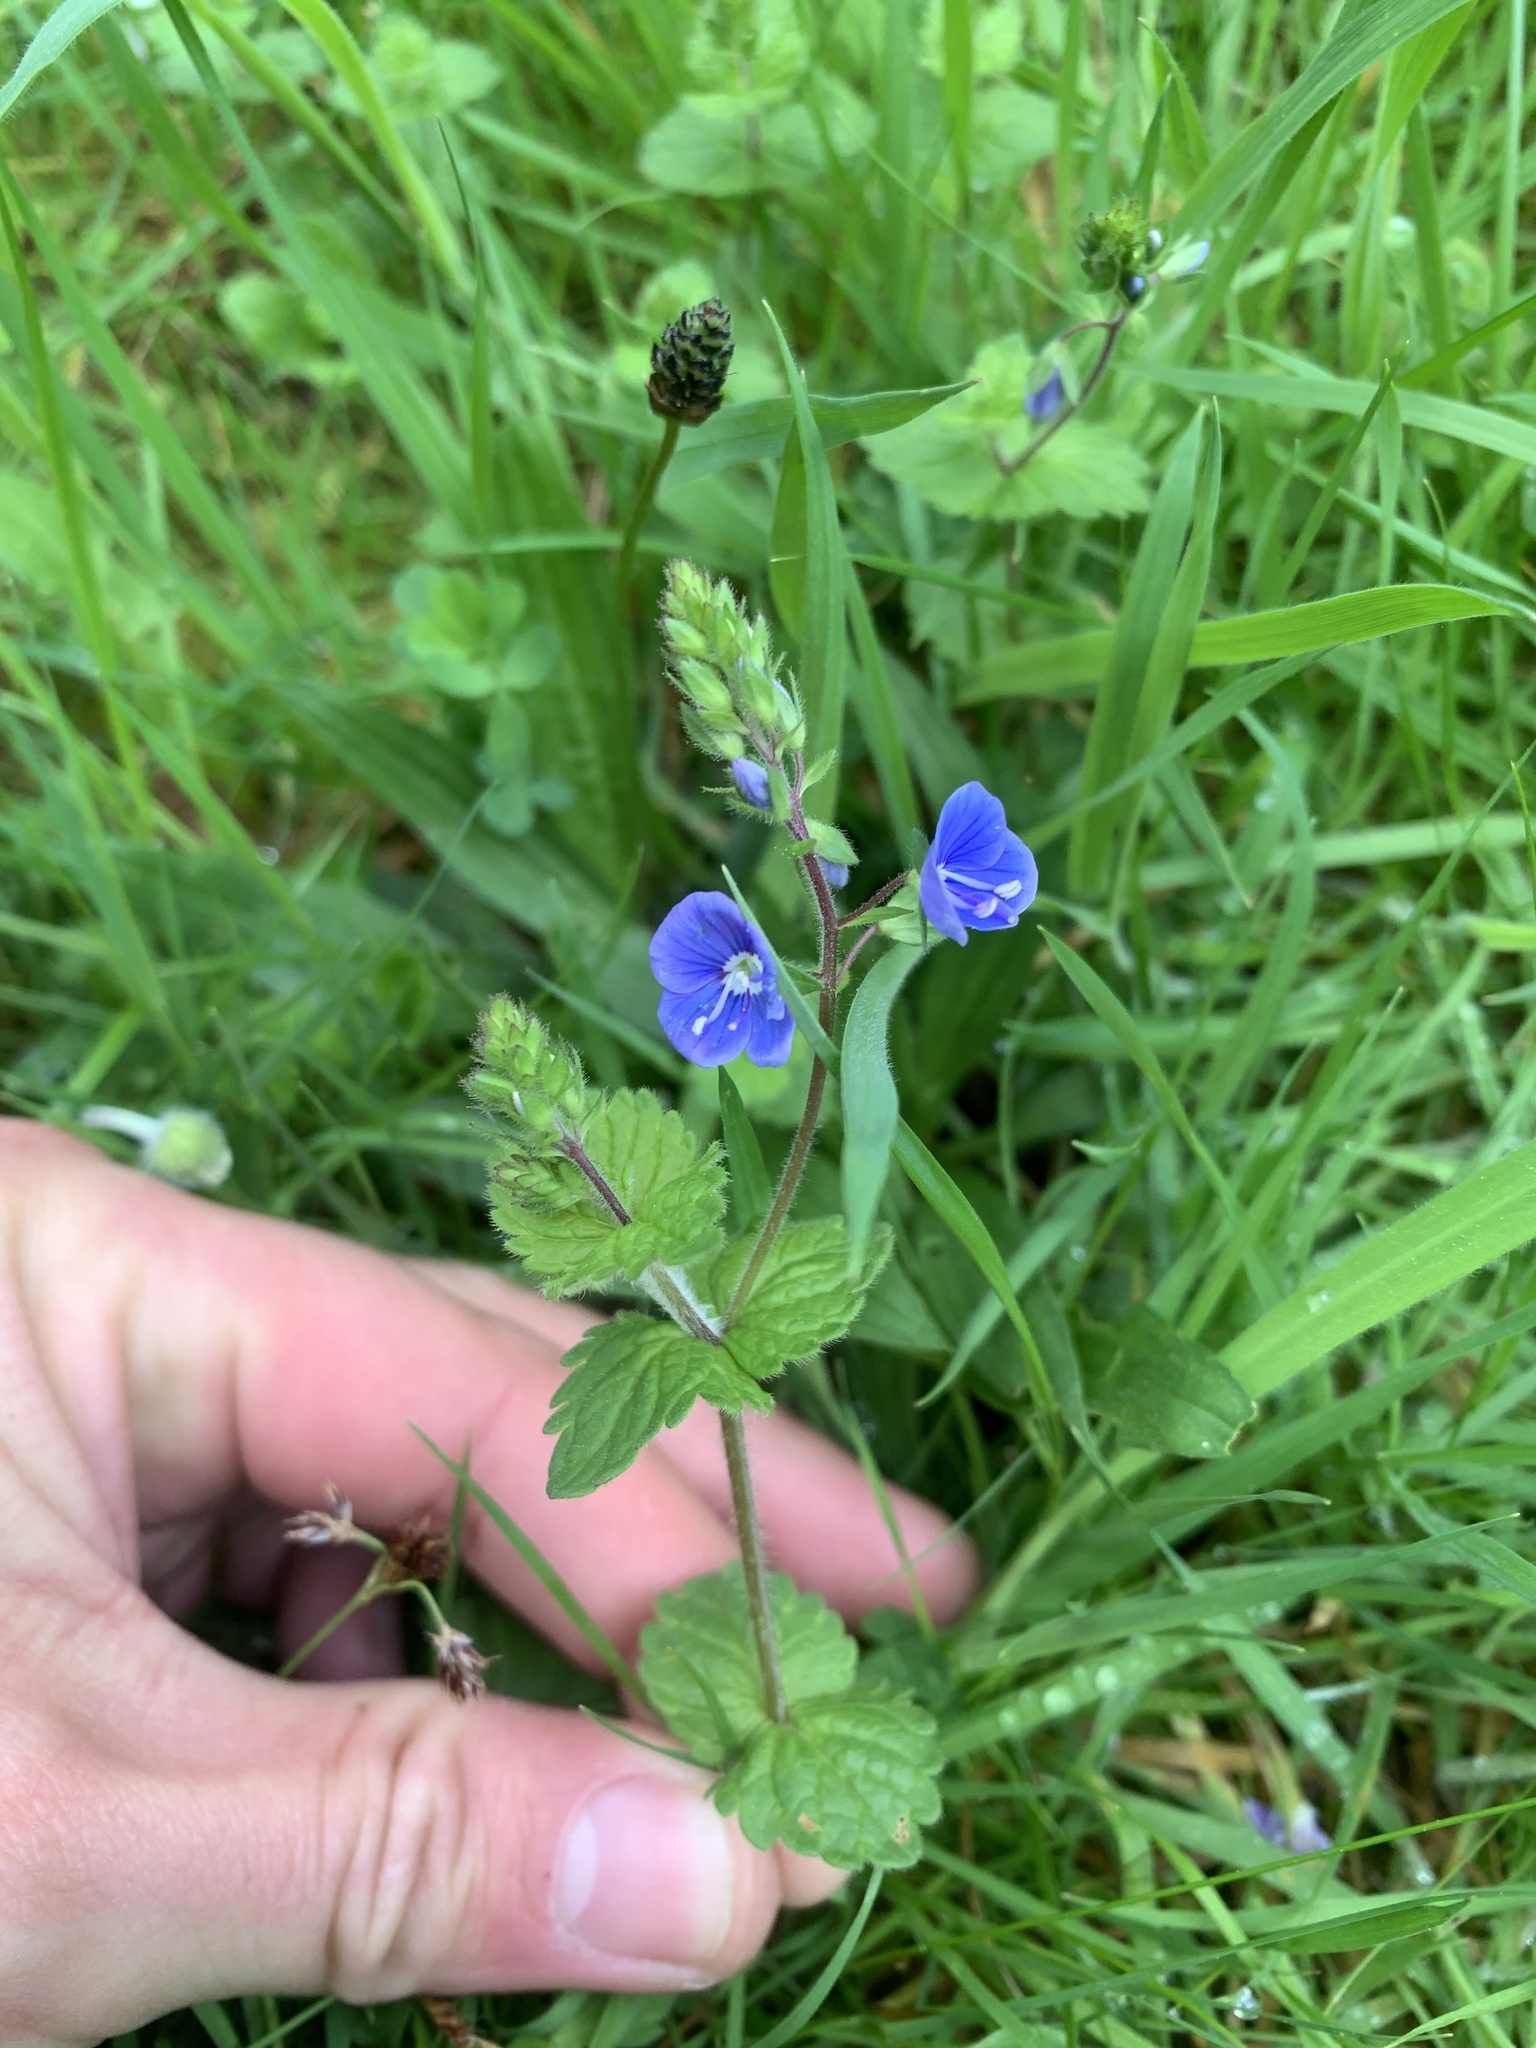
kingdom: Plantae
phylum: Tracheophyta
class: Magnoliopsida
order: Lamiales
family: Plantaginaceae
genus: Veronica
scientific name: Veronica chamaedrys
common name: Germander speedwell
